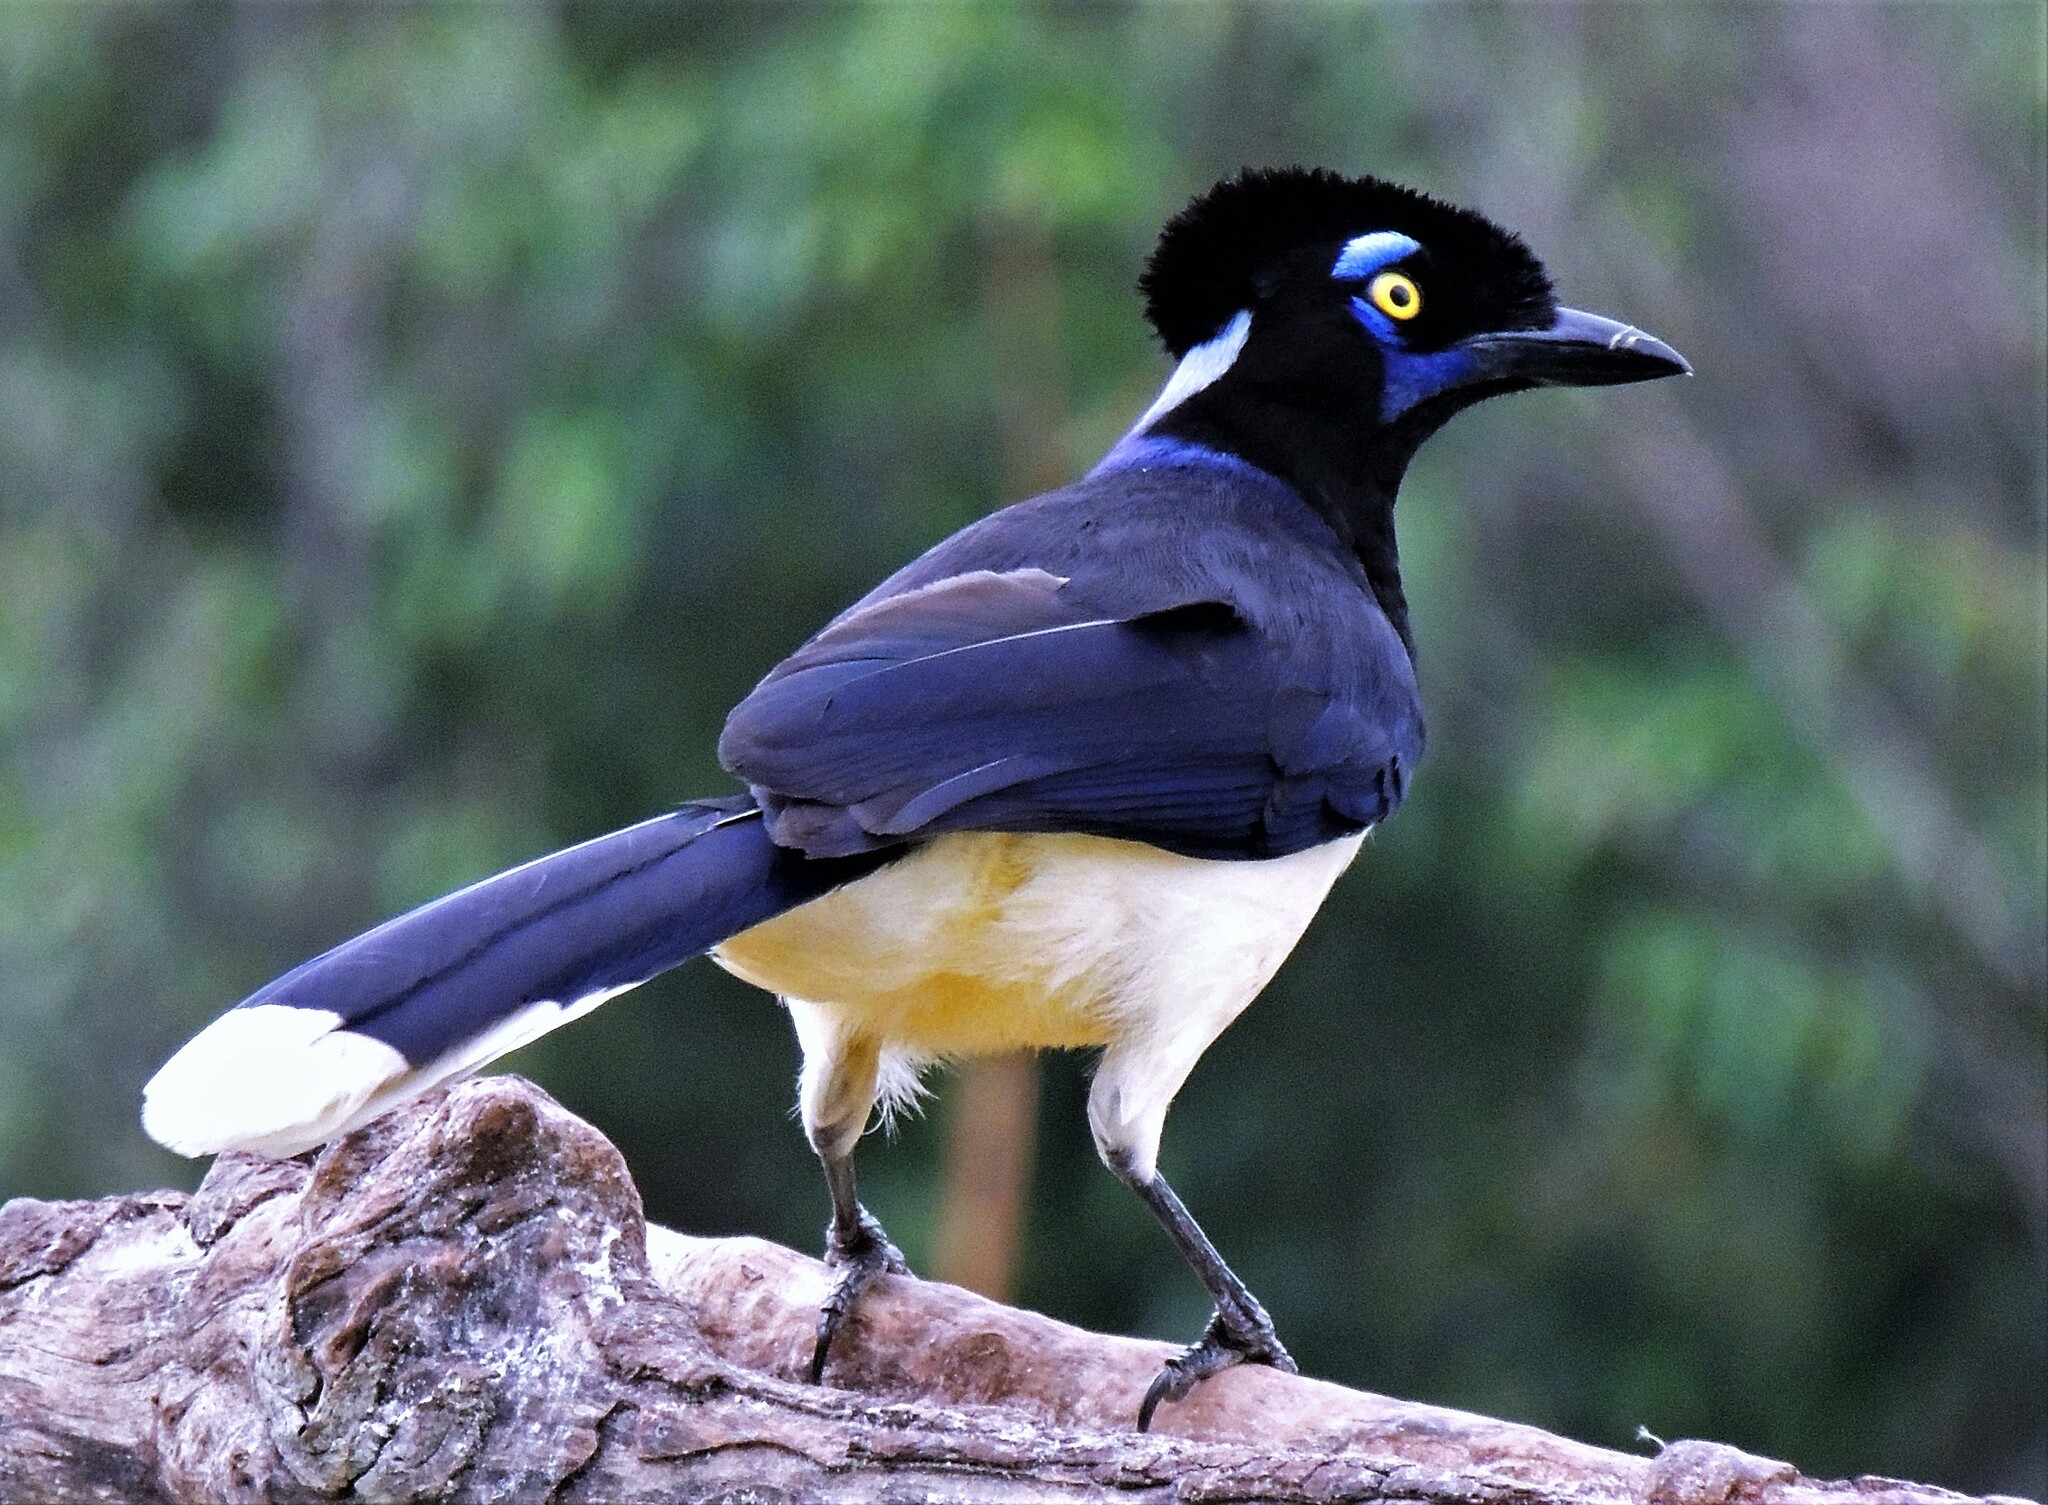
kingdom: Animalia
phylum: Chordata
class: Aves
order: Passeriformes
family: Corvidae
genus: Cyanocorax
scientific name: Cyanocorax chrysops
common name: Plush-crested jay
